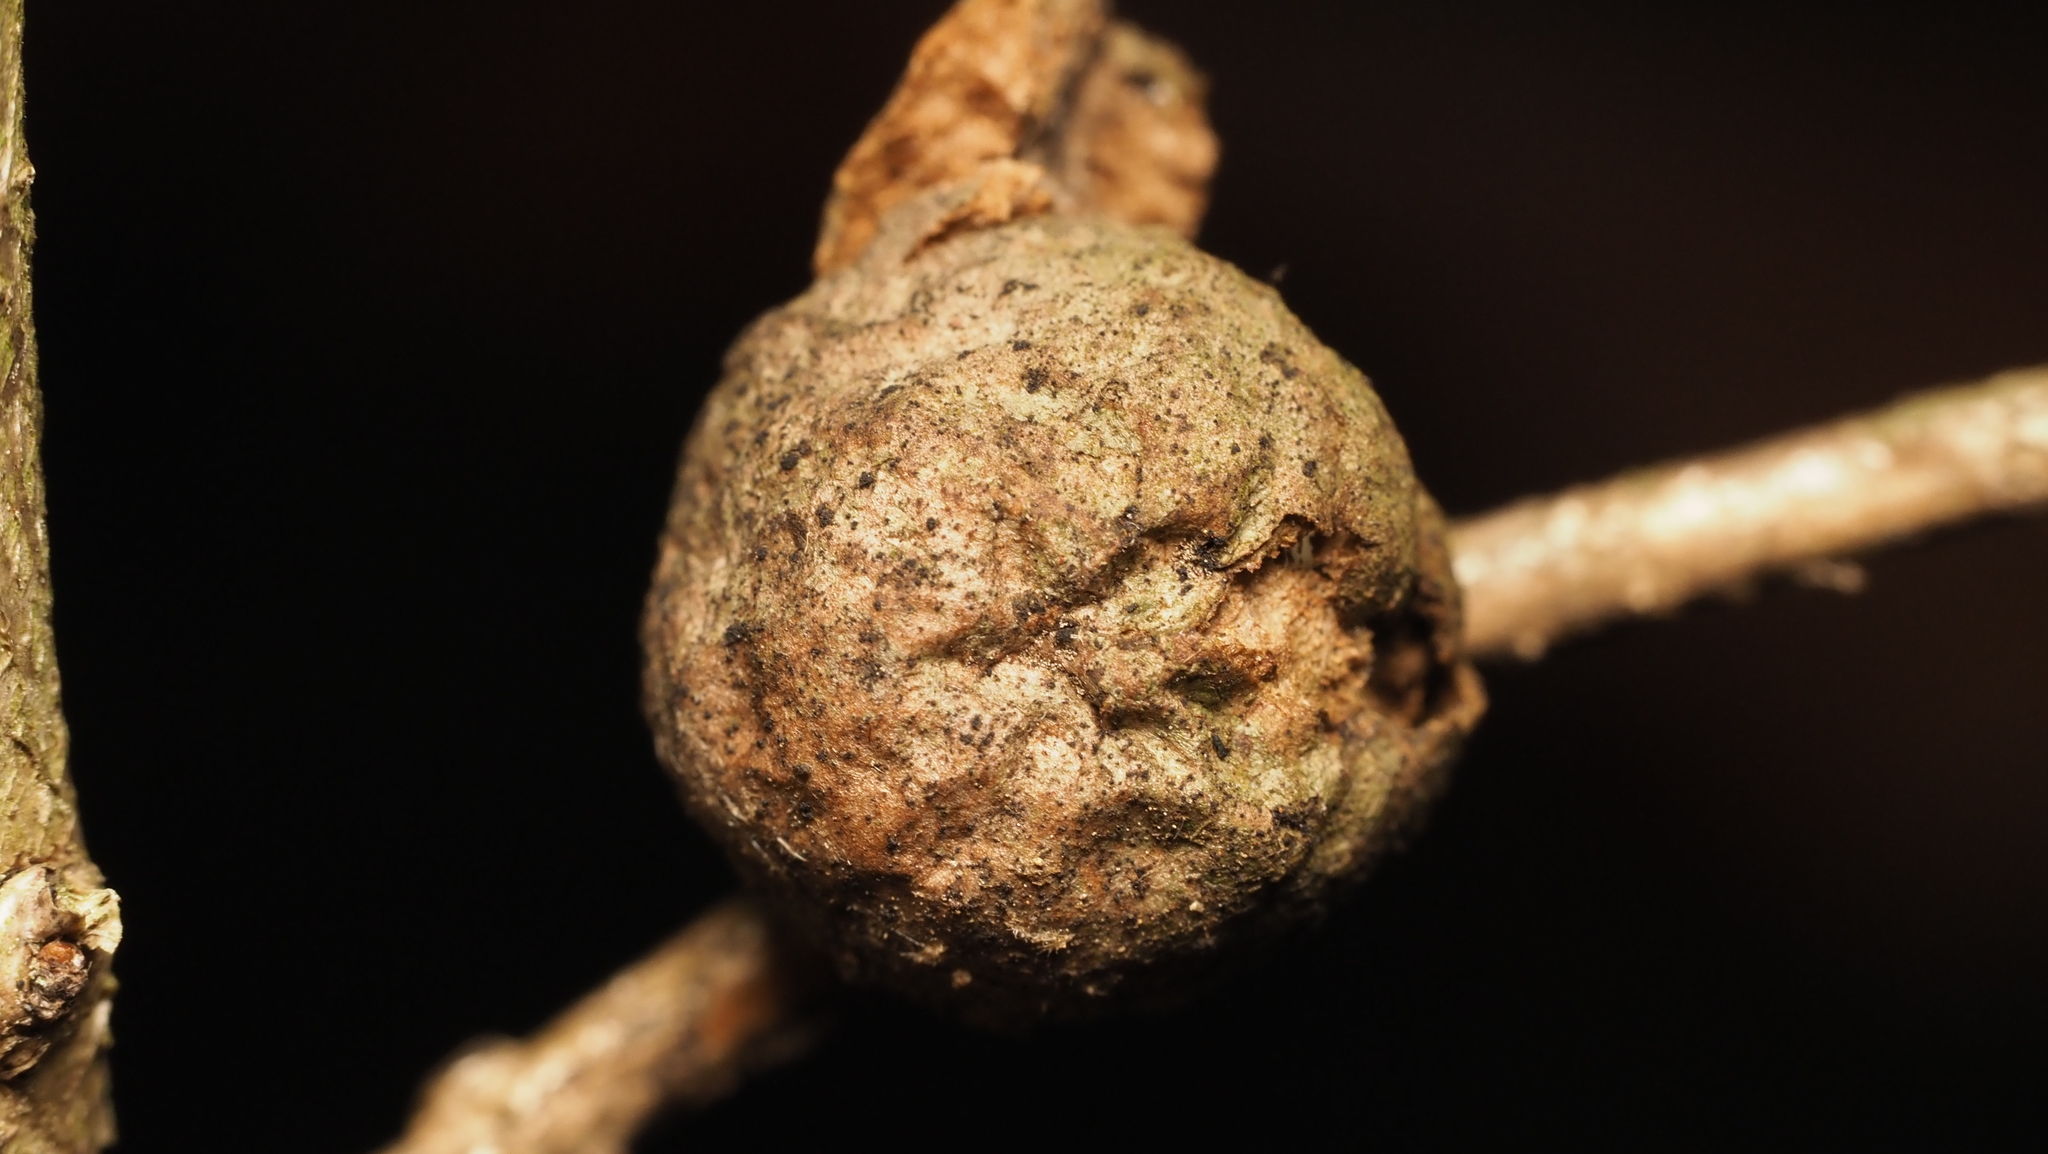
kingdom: Animalia
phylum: Arthropoda
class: Insecta
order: Hymenoptera
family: Cynipidae
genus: Disholcaspis
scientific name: Disholcaspis quercusglobulus
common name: Round bullet gall wasp
